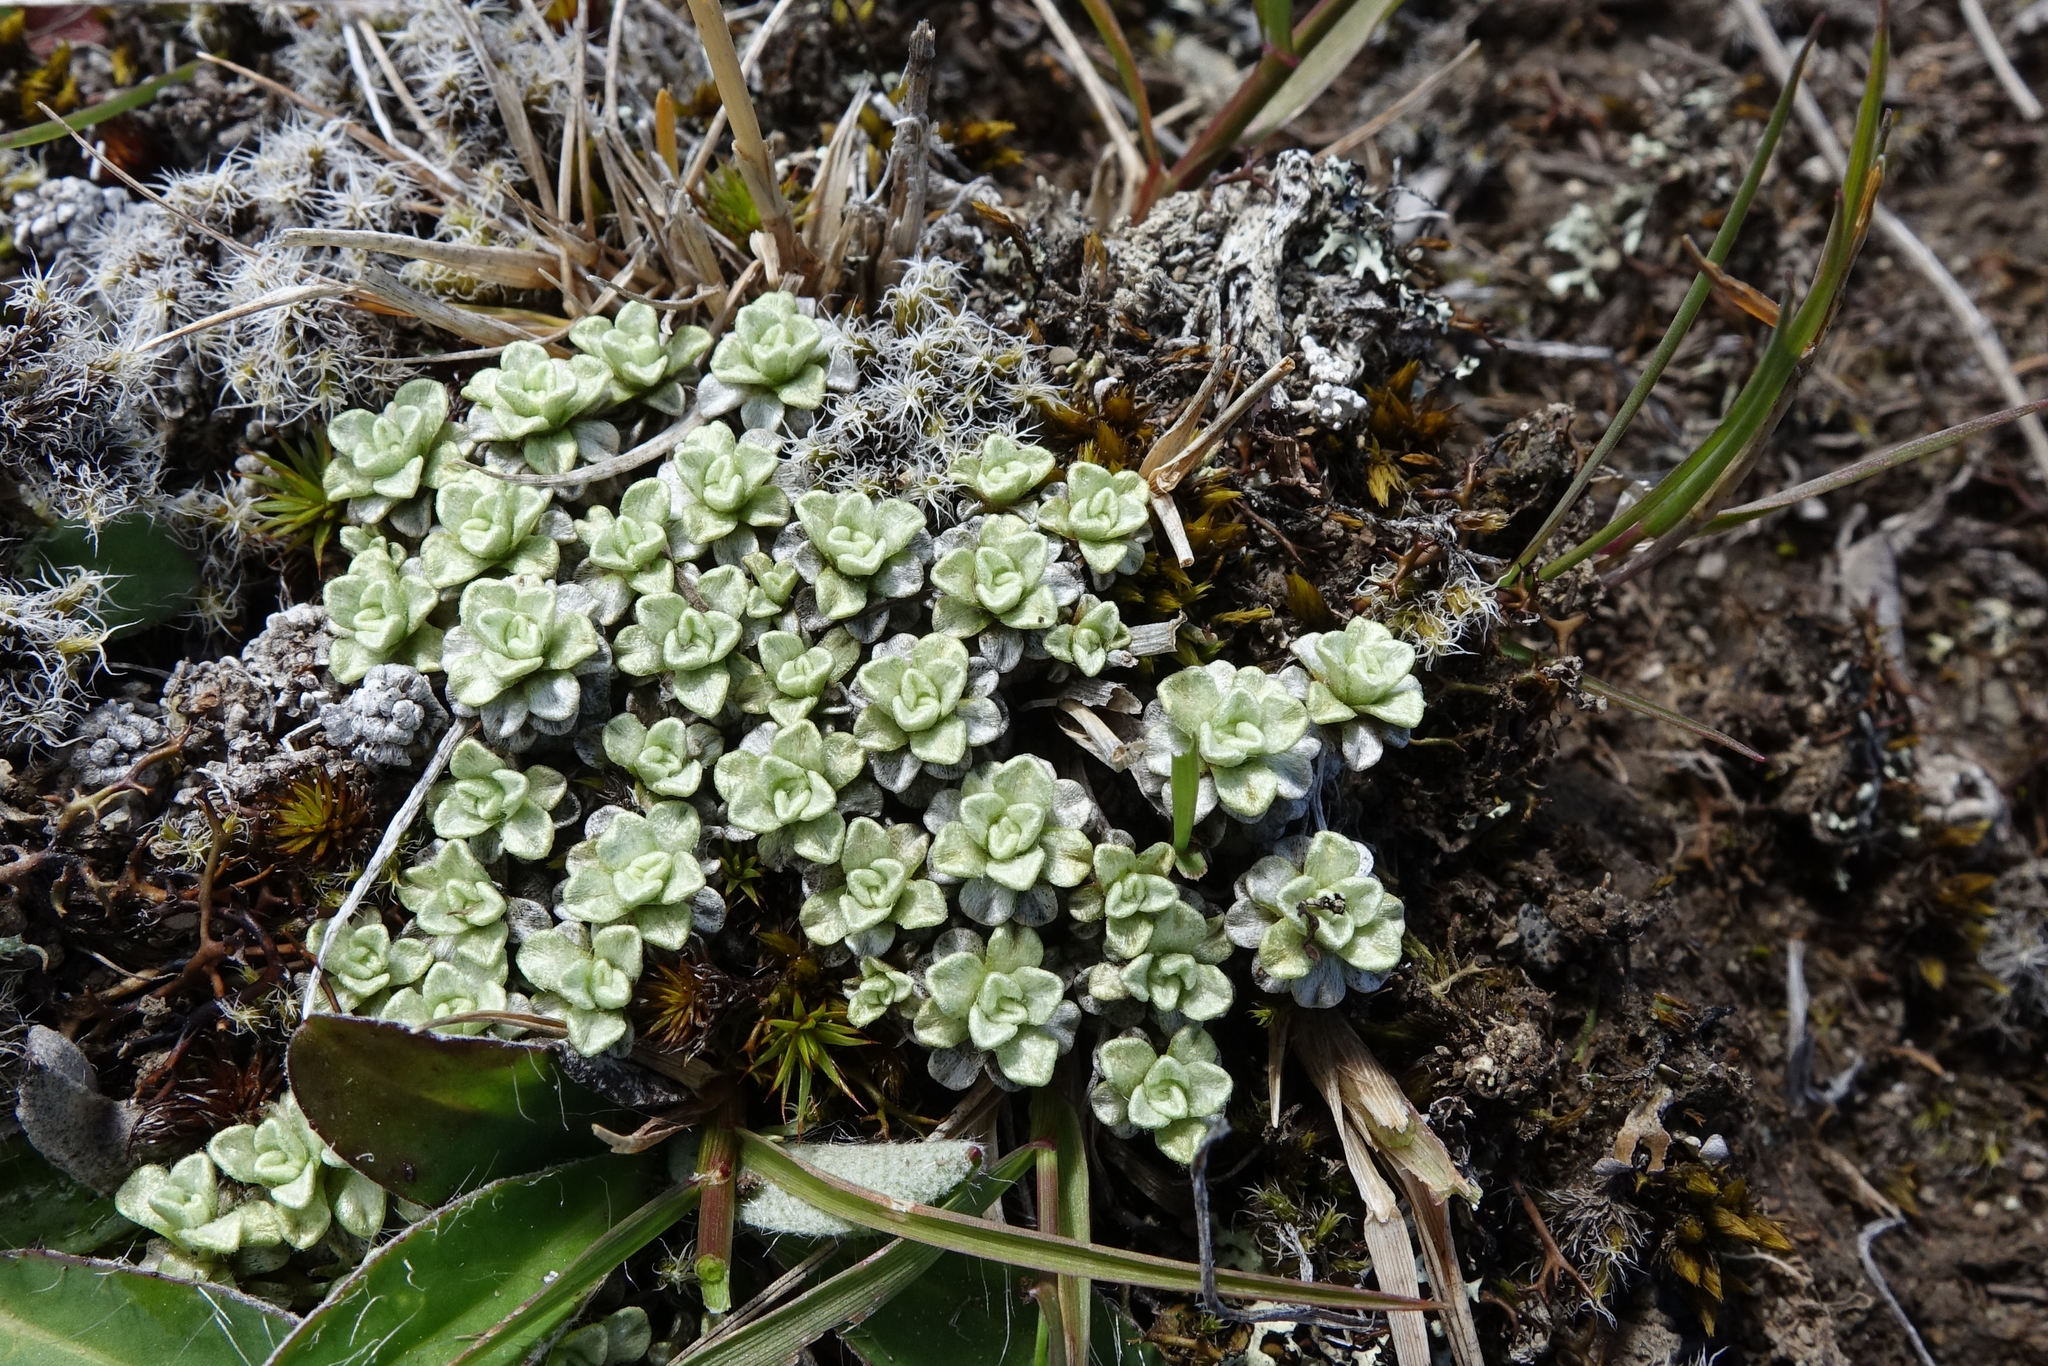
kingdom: Plantae
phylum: Tracheophyta
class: Magnoliopsida
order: Asterales
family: Asteraceae
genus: Raoulia
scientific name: Raoulia parkii
